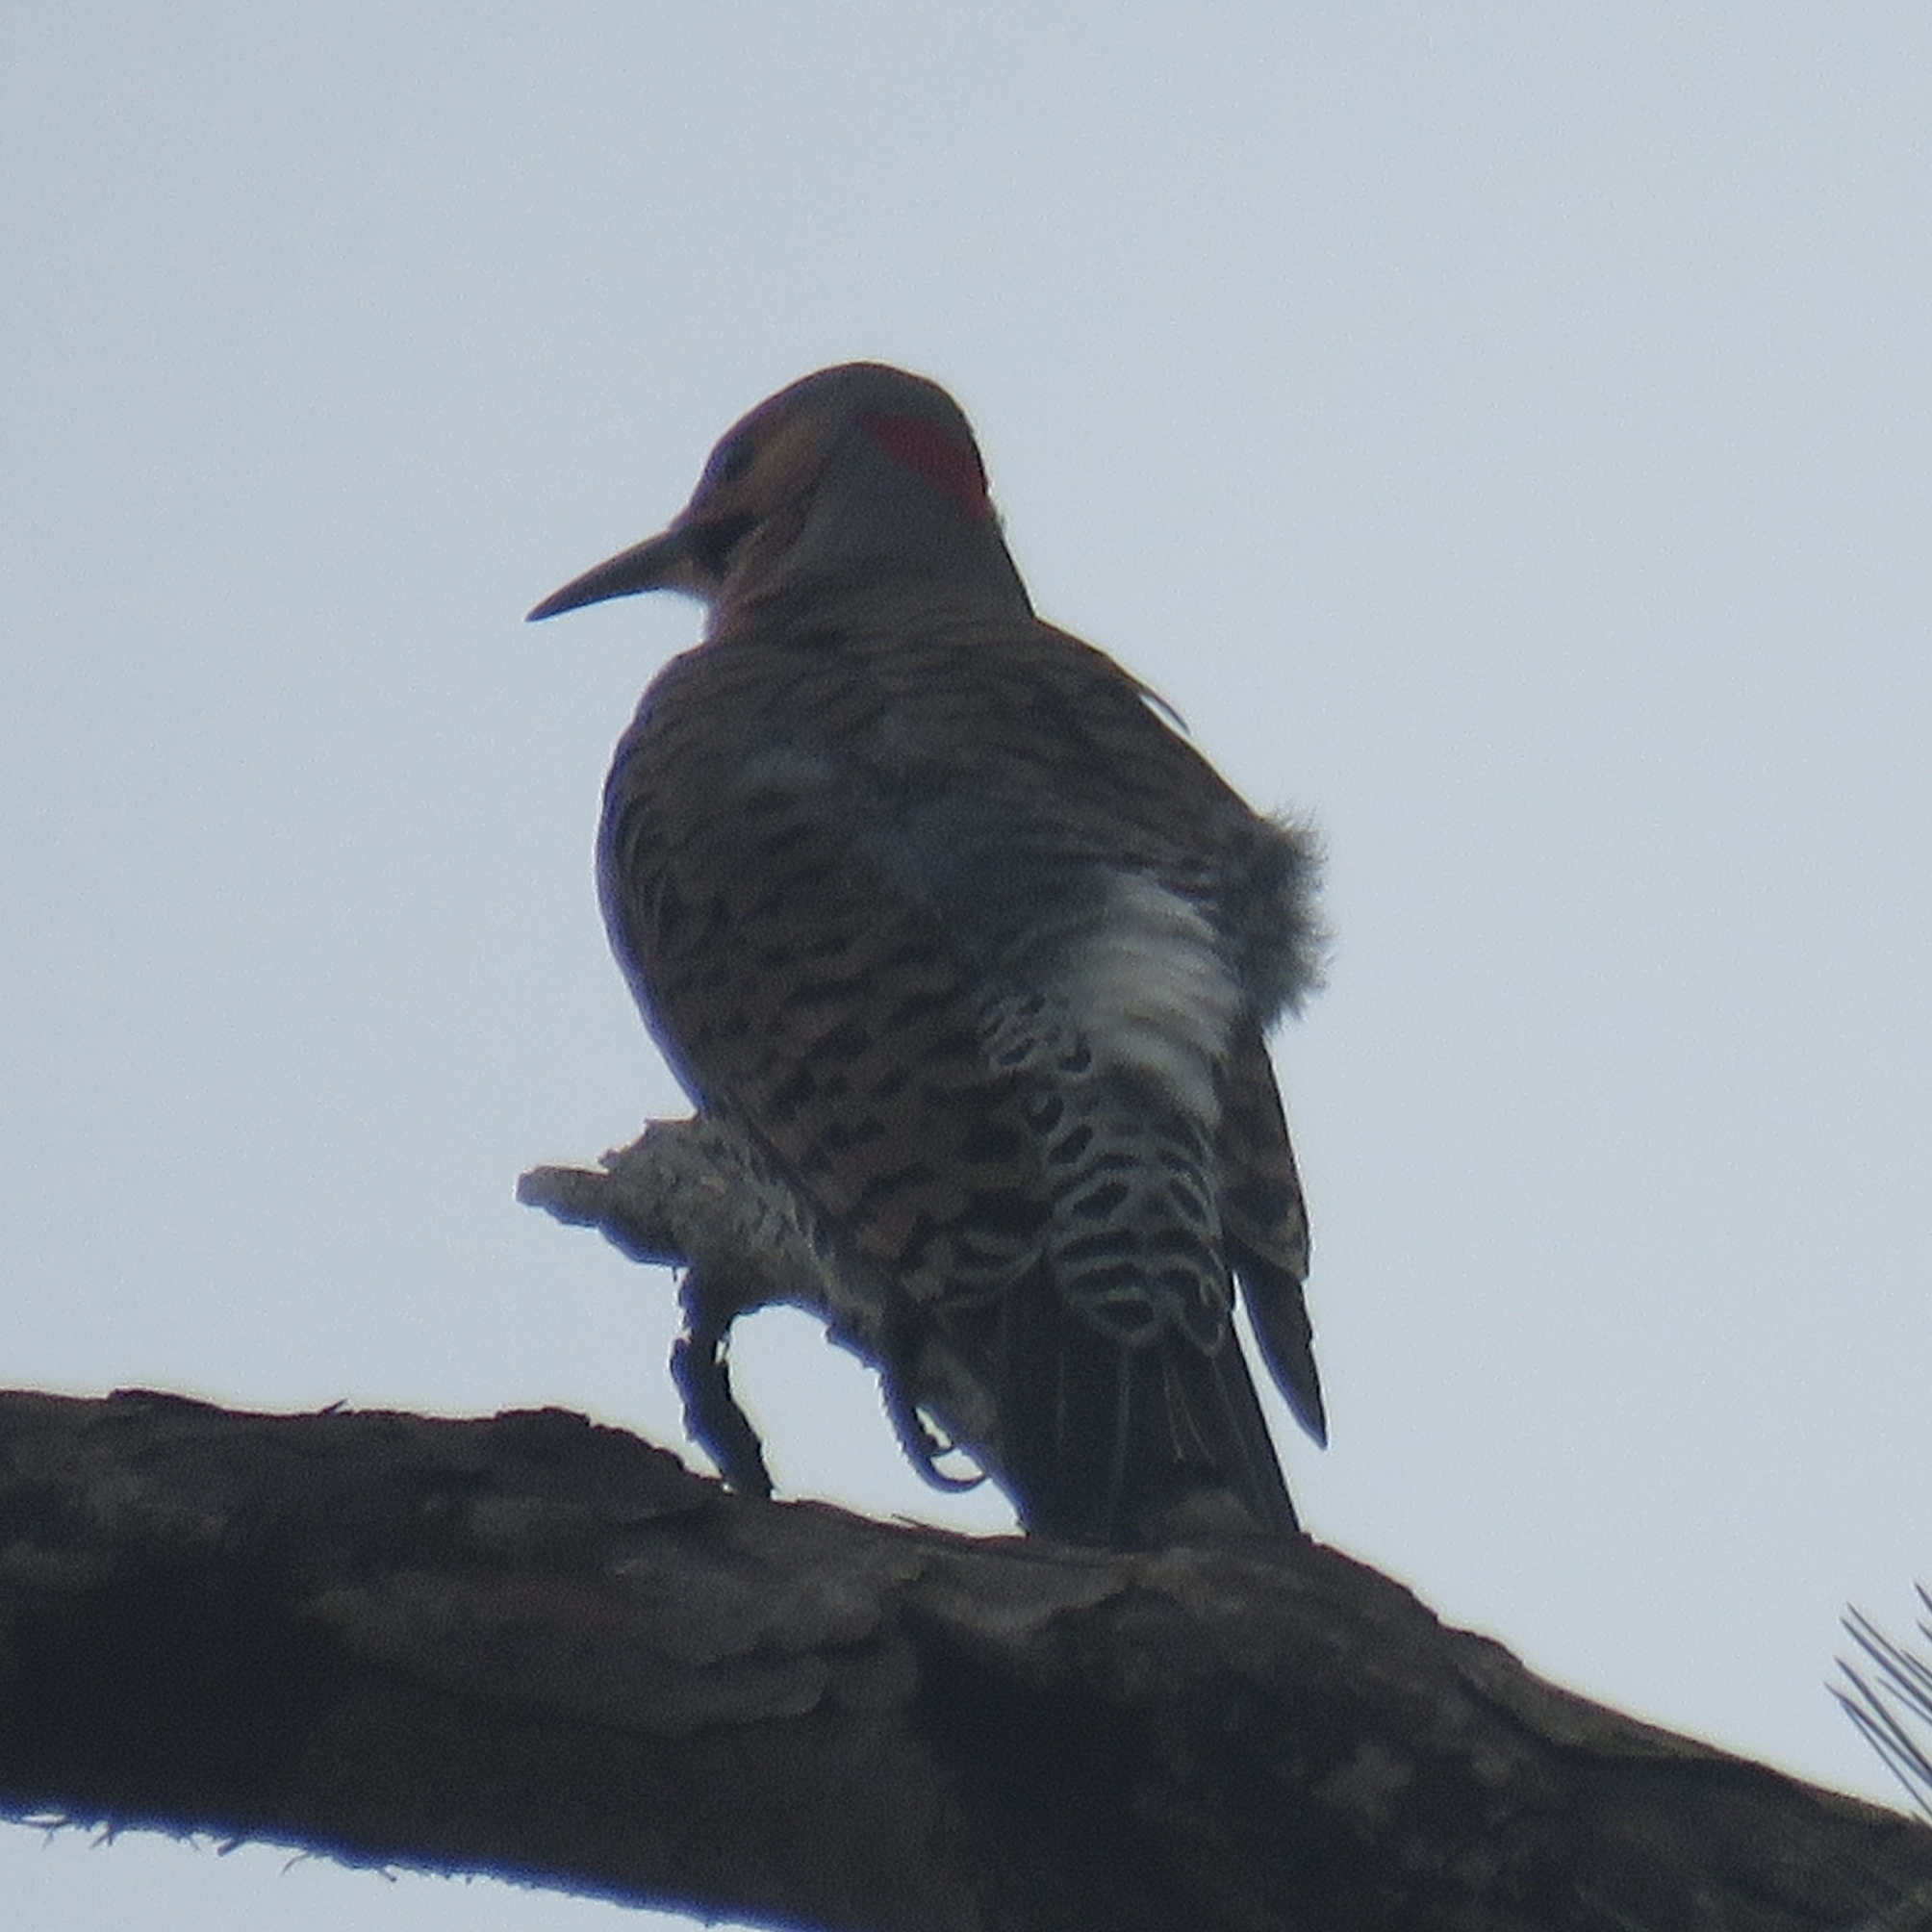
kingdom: Animalia
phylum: Chordata
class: Aves
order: Piciformes
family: Picidae
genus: Colaptes
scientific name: Colaptes auratus
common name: Northern flicker
